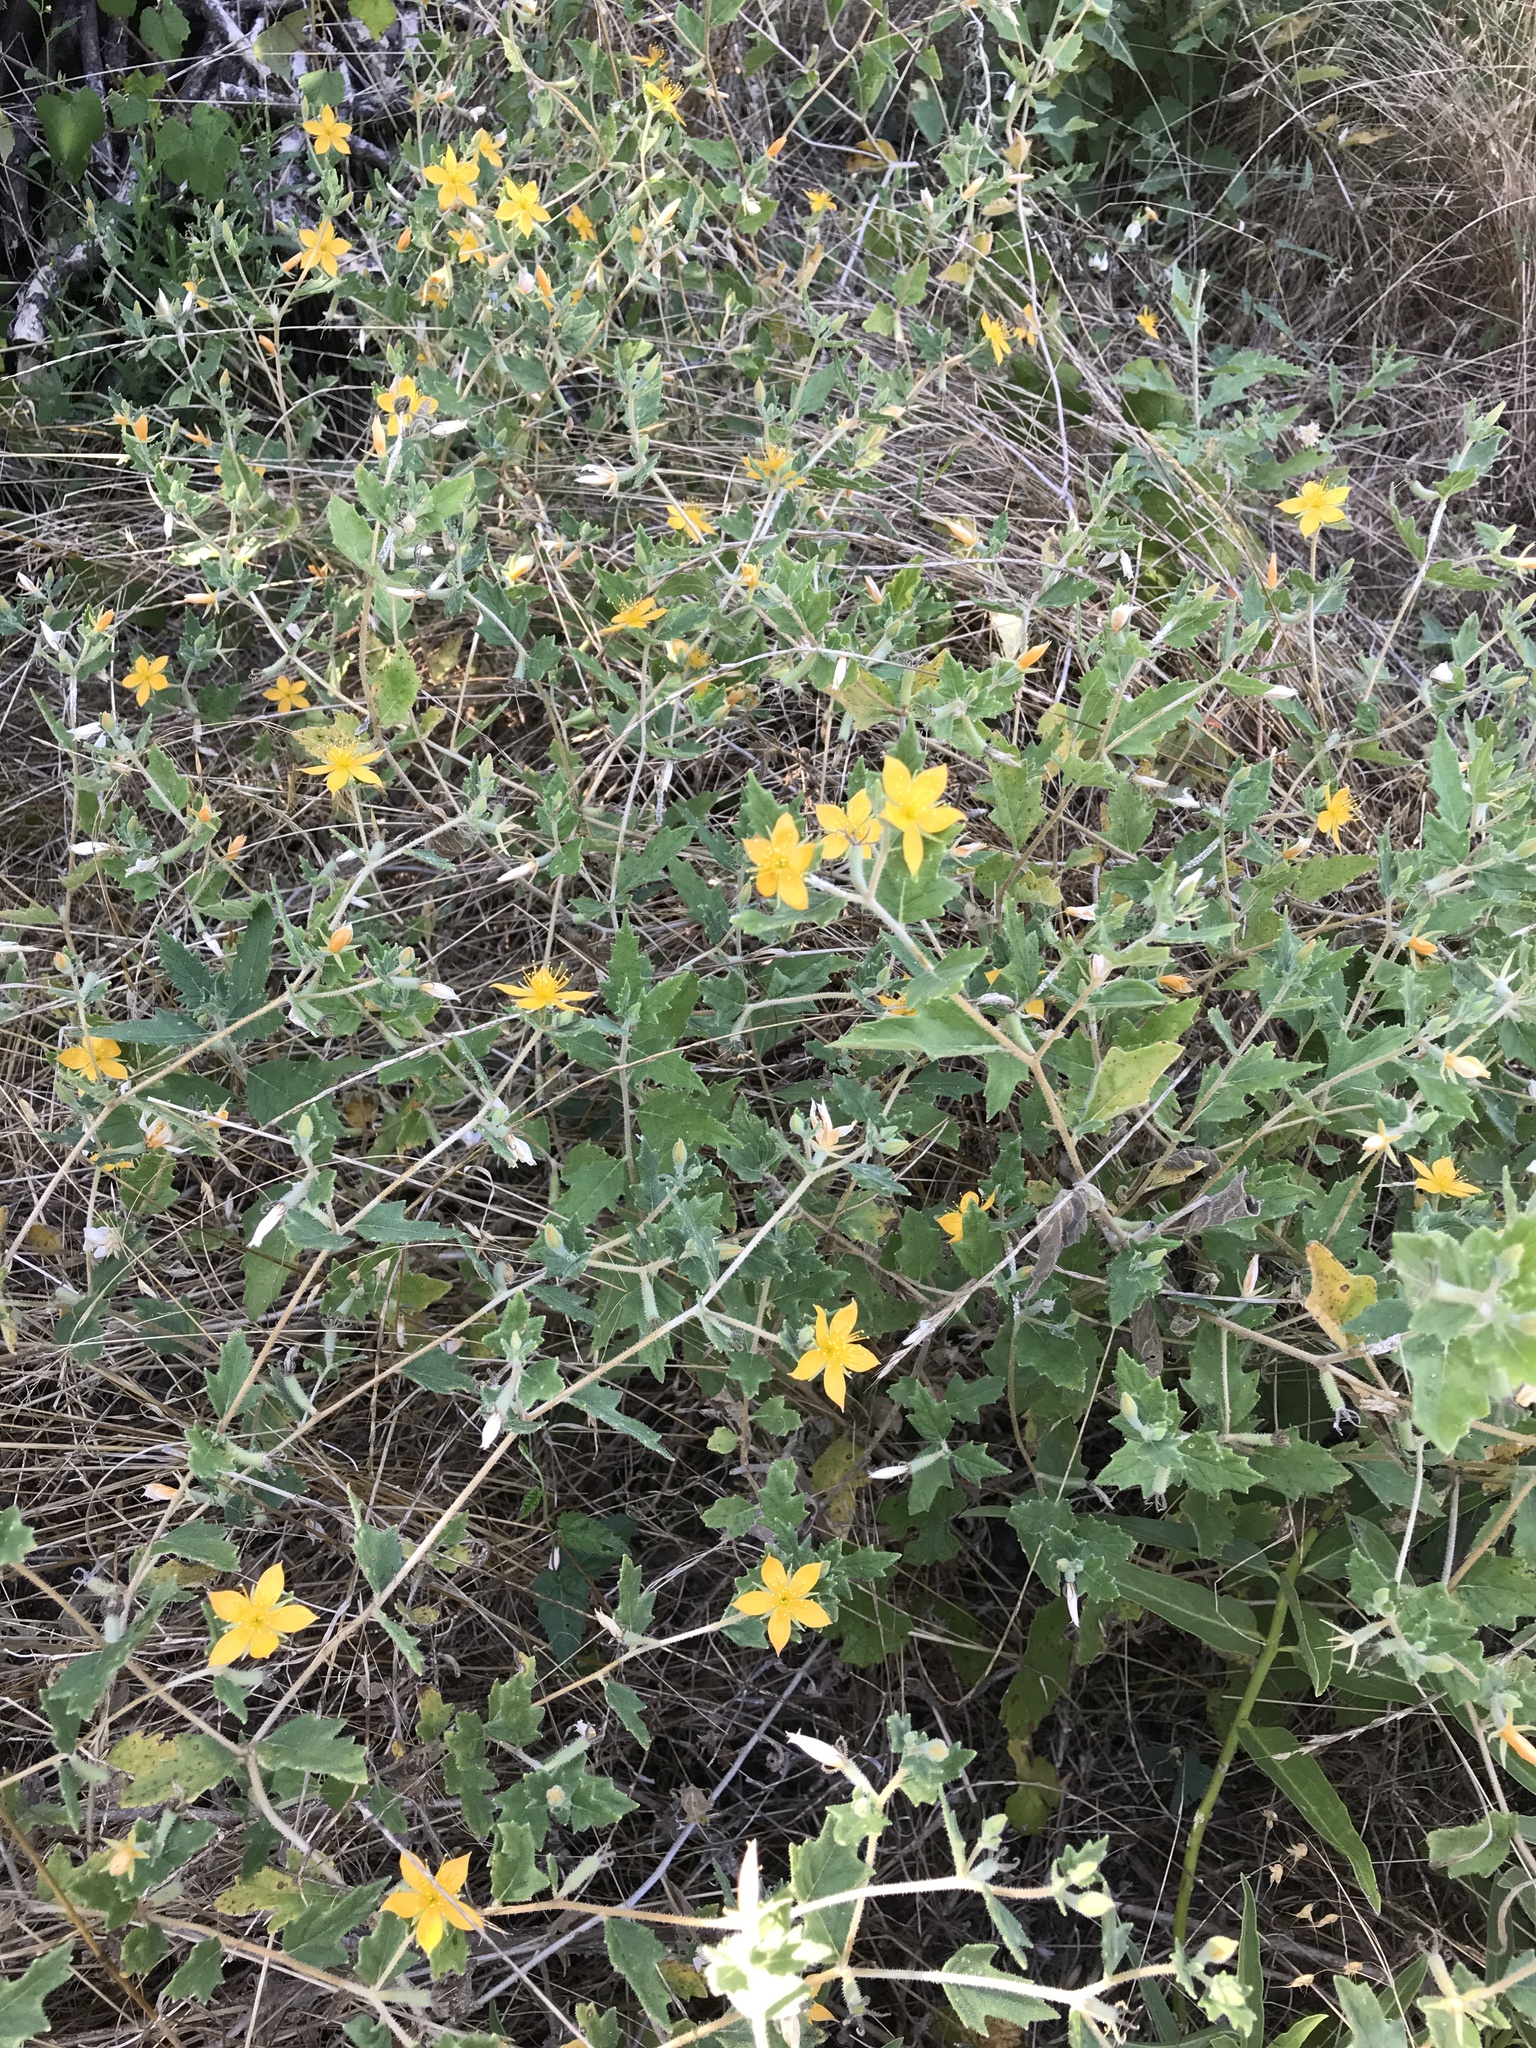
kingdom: Plantae
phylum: Tracheophyta
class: Magnoliopsida
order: Cornales
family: Loasaceae
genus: Mentzelia
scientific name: Mentzelia oligosperma
